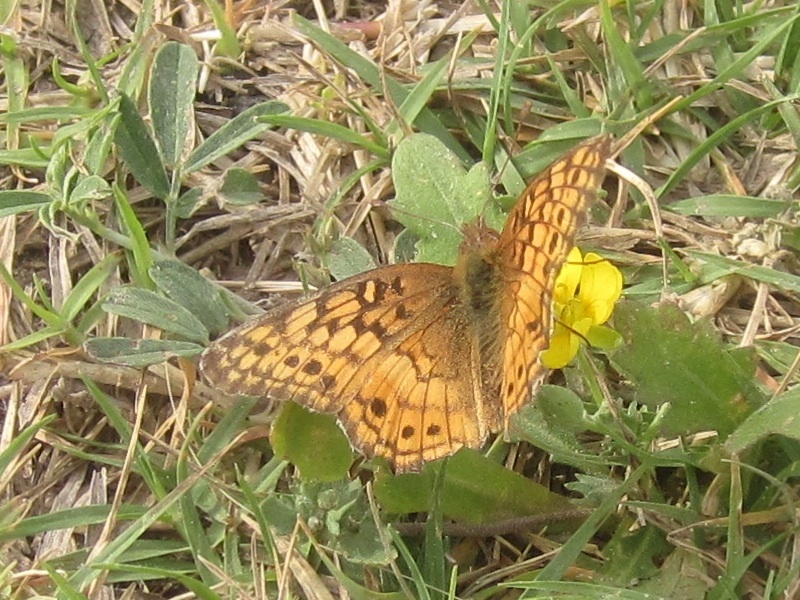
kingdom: Animalia
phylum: Arthropoda
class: Insecta
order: Lepidoptera
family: Nymphalidae
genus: Euptoieta
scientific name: Euptoieta claudia
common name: Variegated fritillary
